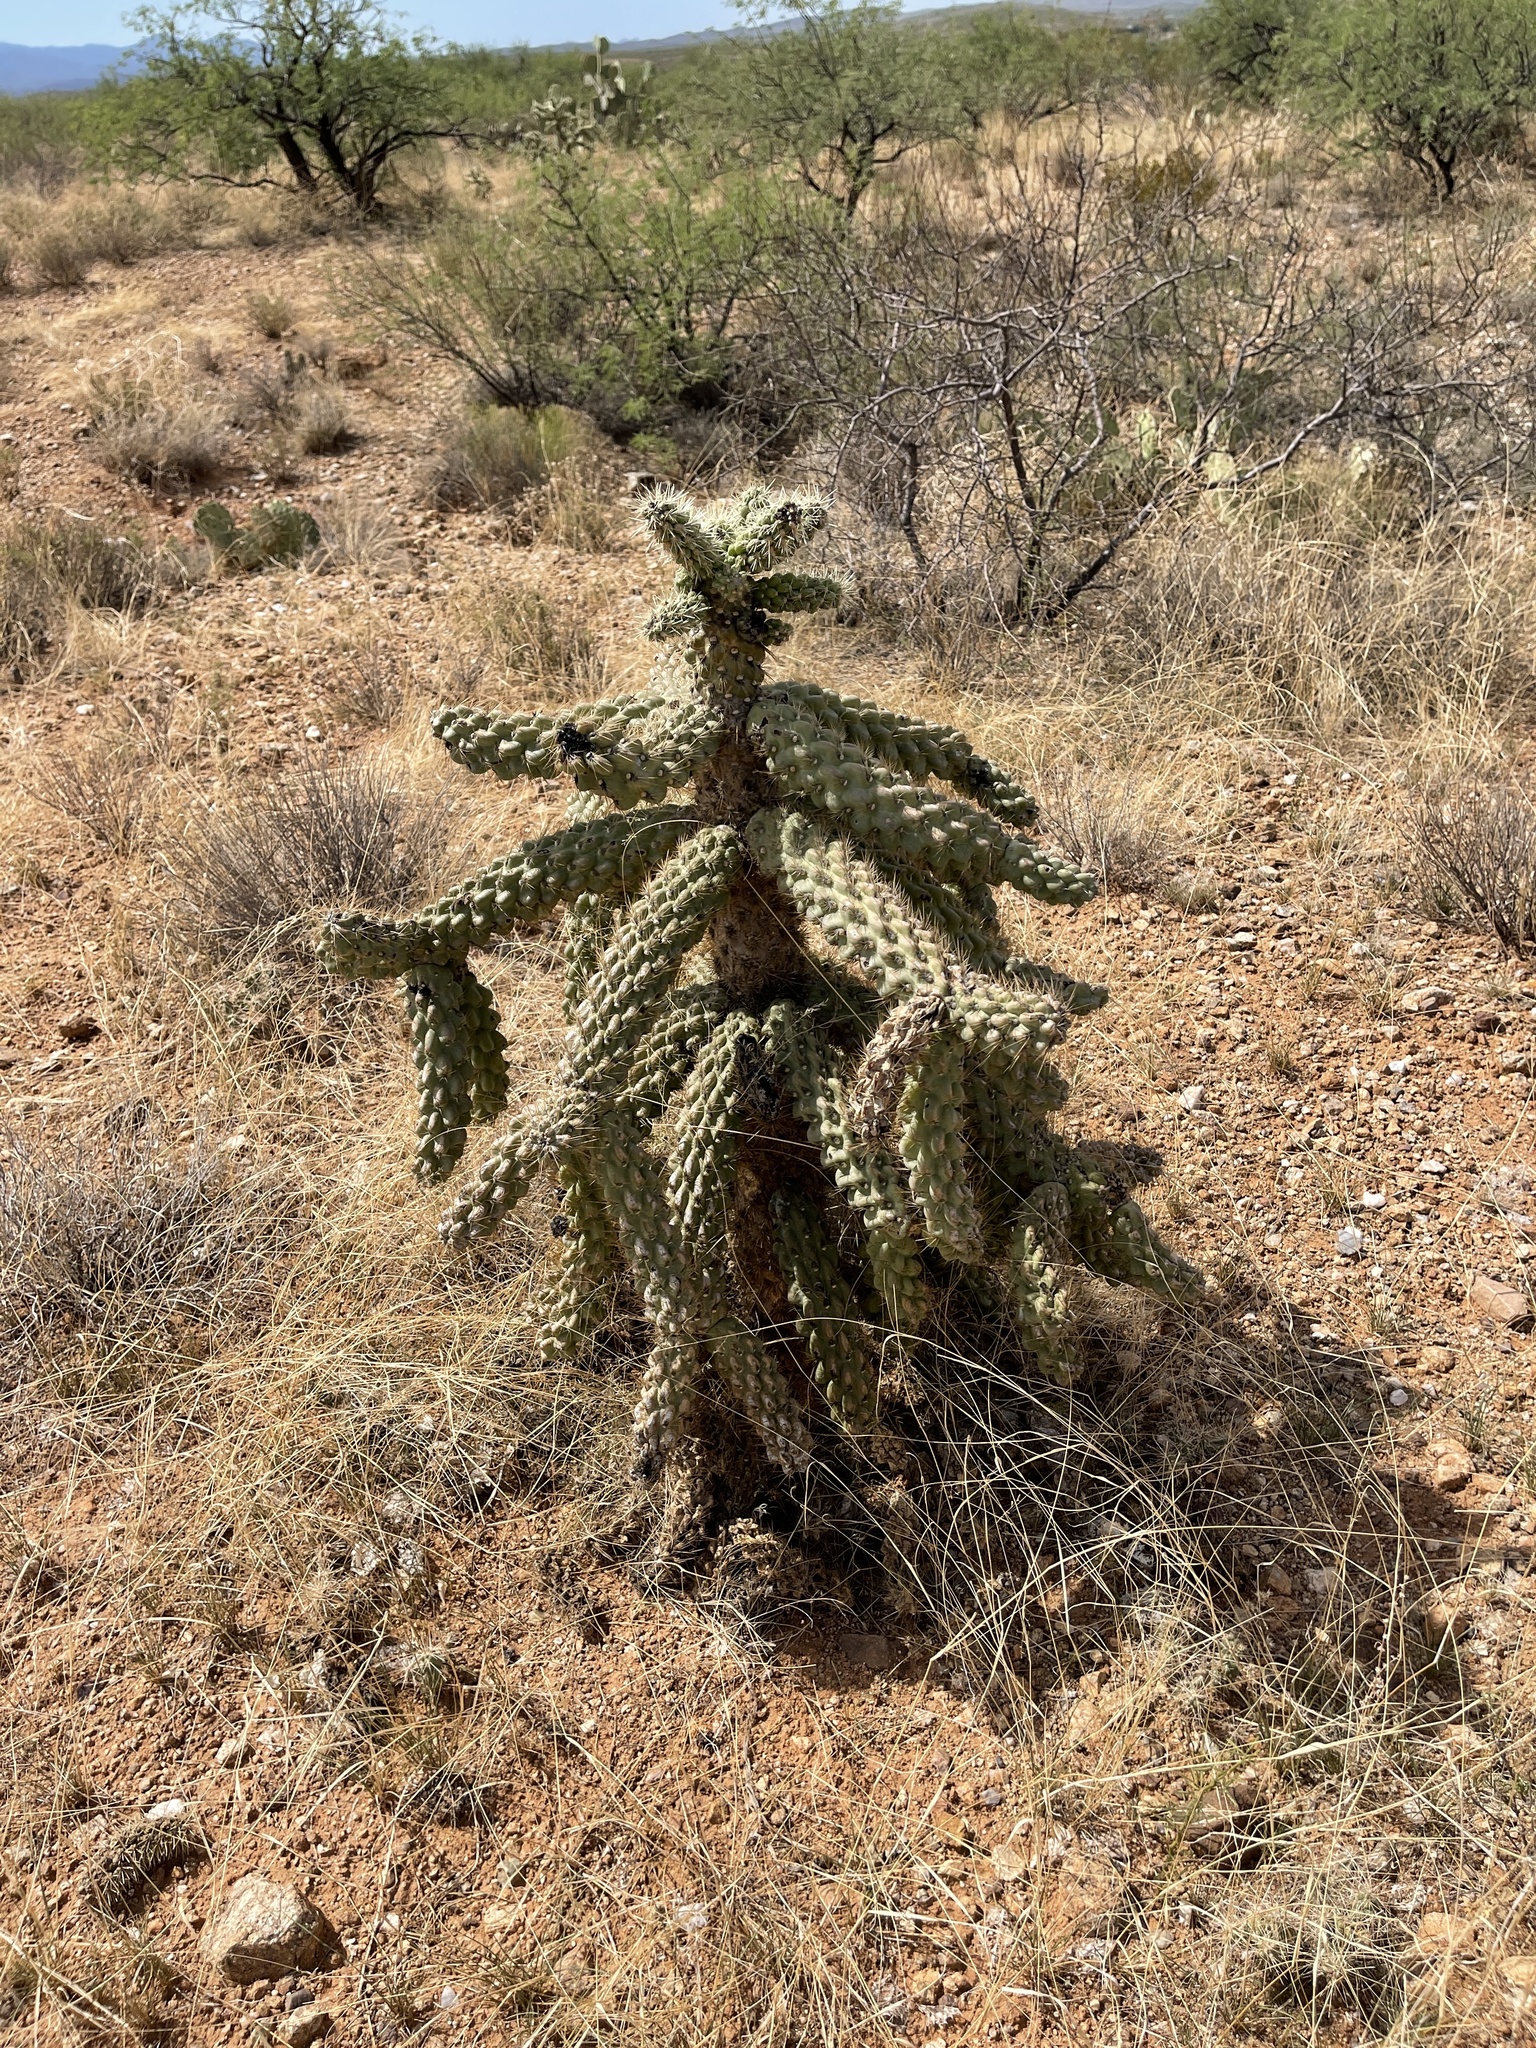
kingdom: Plantae
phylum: Tracheophyta
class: Magnoliopsida
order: Caryophyllales
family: Cactaceae
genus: Cylindropuntia
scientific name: Cylindropuntia fulgida
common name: Jumping cholla
